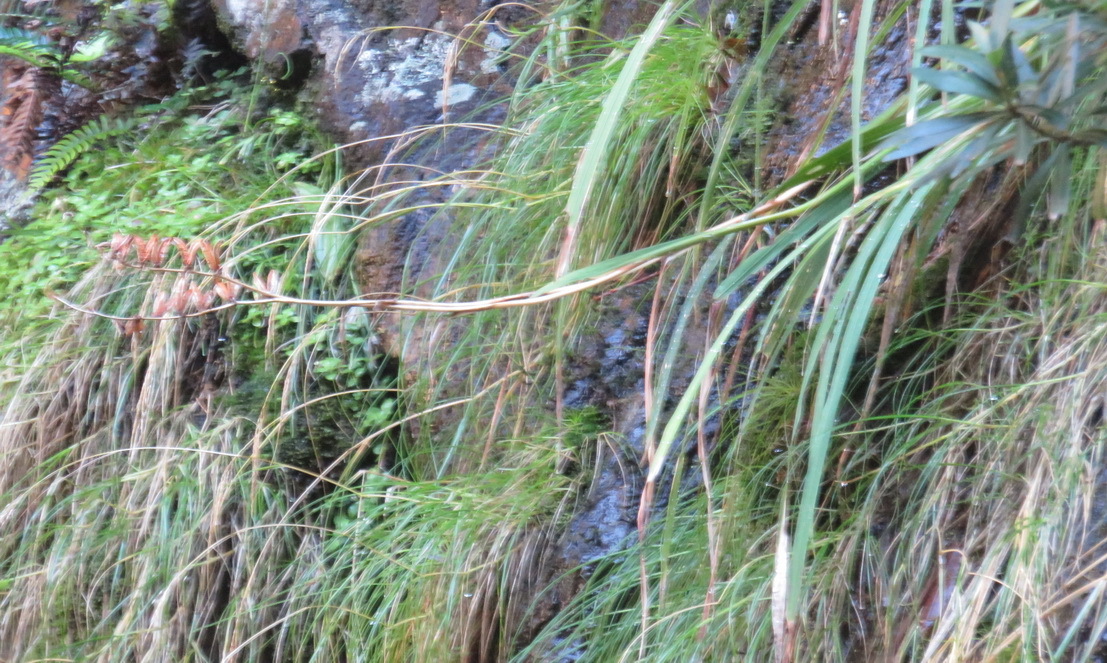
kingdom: Plantae
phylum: Tracheophyta
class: Liliopsida
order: Asparagales
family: Iridaceae
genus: Gladiolus
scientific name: Gladiolus aquamontanus
